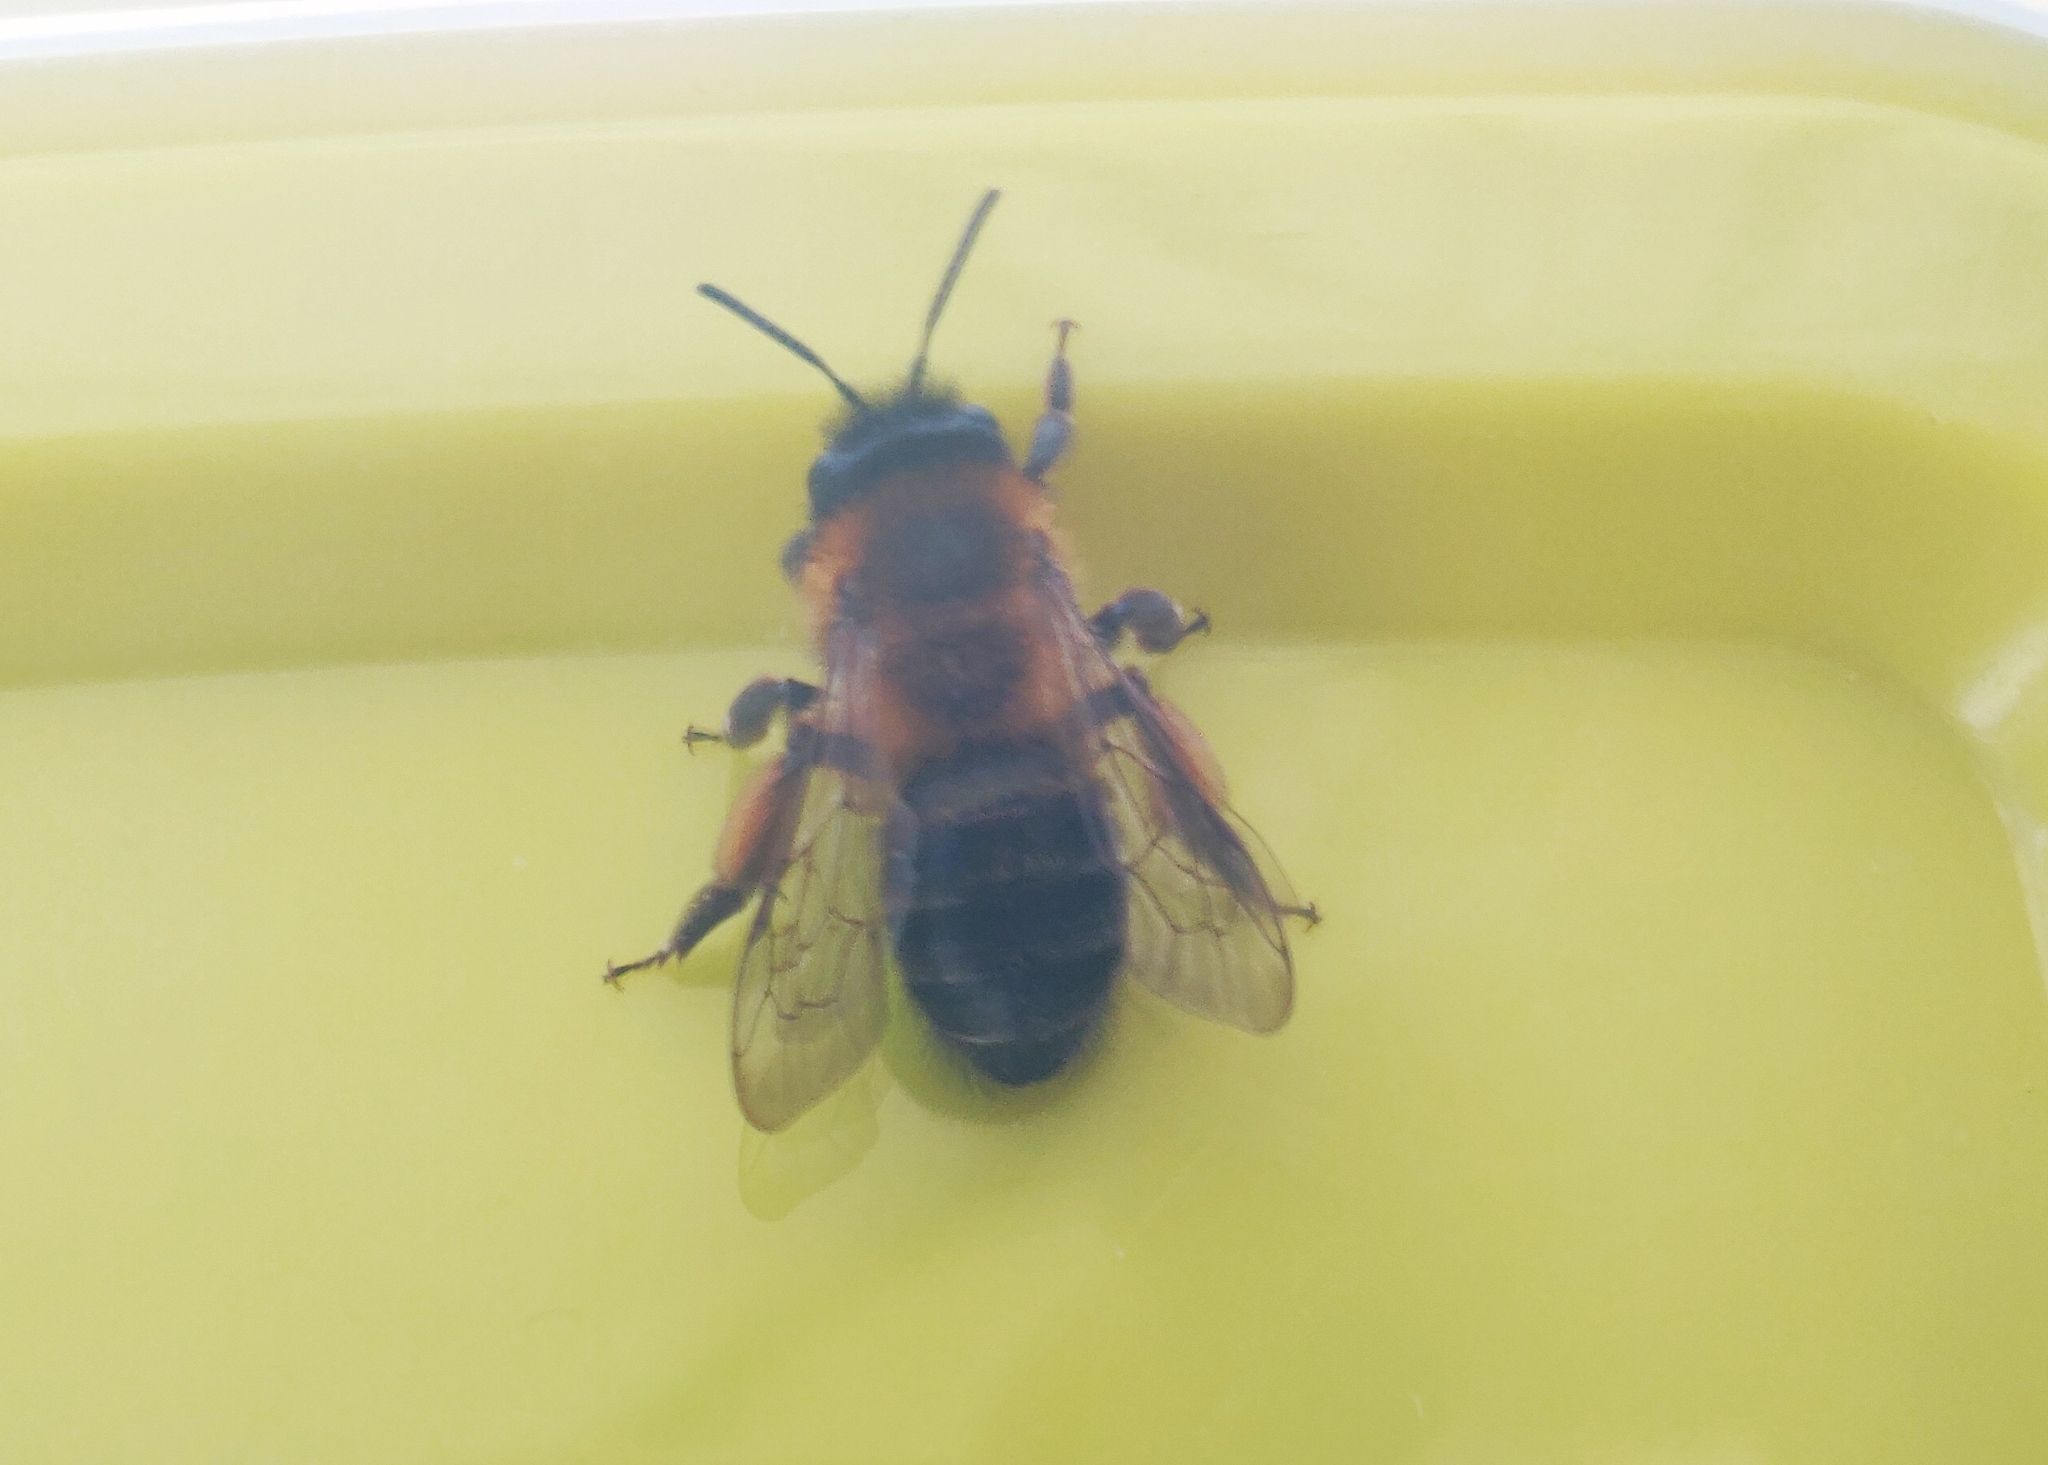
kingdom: Animalia
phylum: Arthropoda
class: Insecta
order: Hymenoptera
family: Andrenidae
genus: Andrena
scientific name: Andrena nigroaenea
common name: Buffish mining bee
